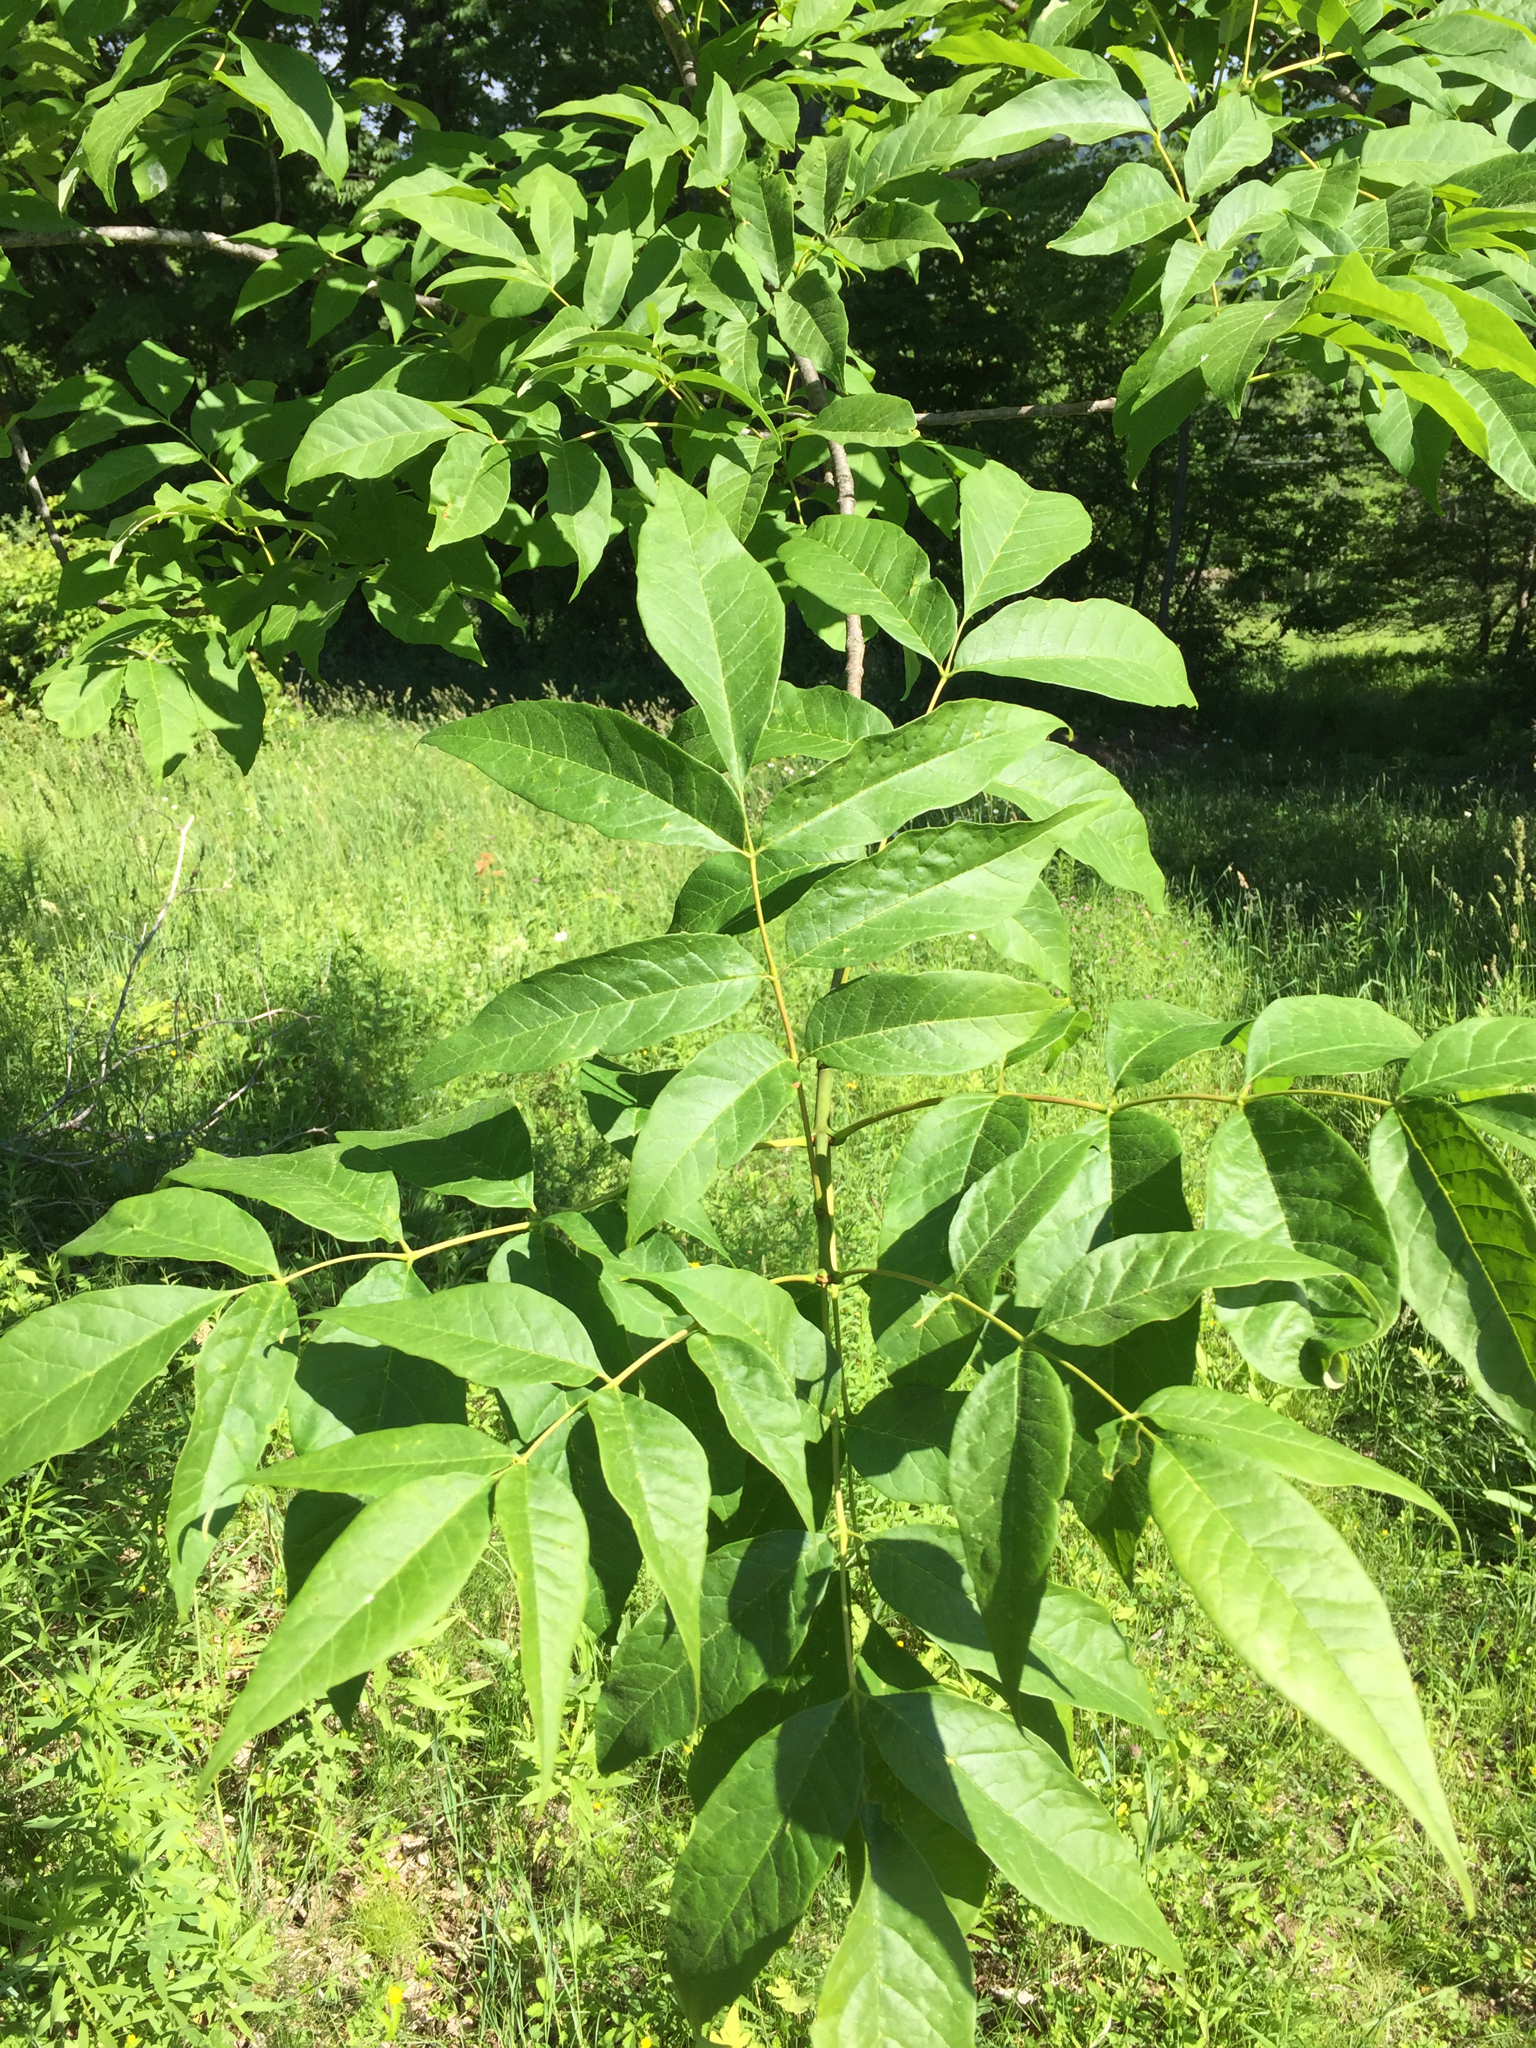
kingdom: Plantae
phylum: Tracheophyta
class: Magnoliopsida
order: Lamiales
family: Oleaceae
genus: Fraxinus
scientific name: Fraxinus americana
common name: White ash
